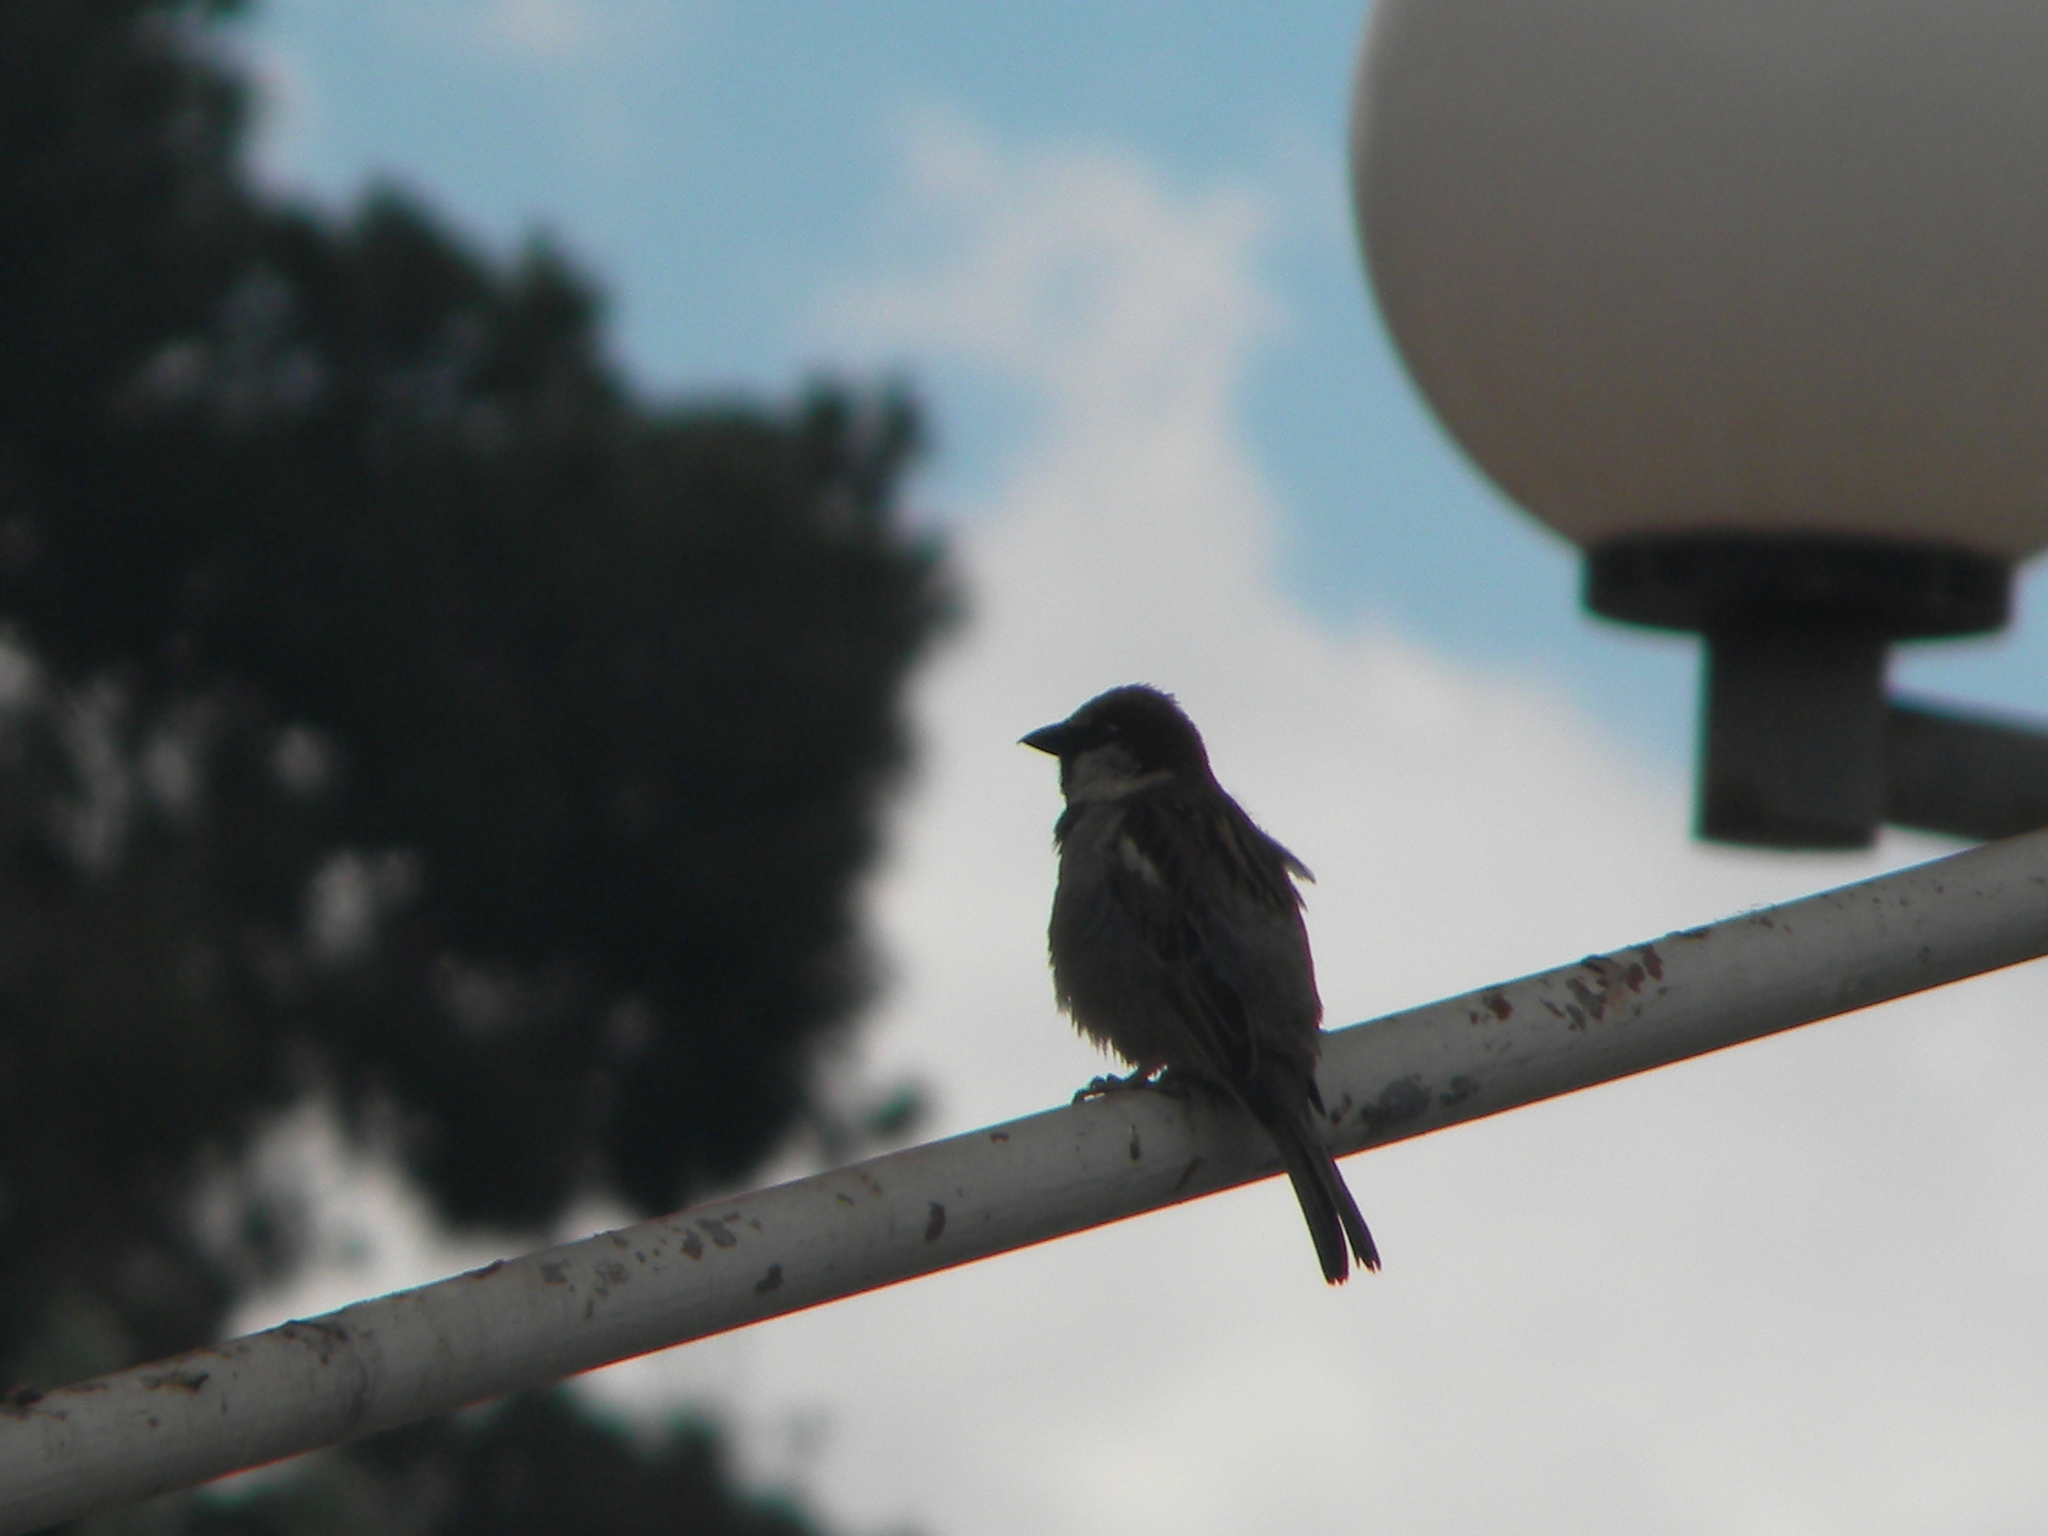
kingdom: Animalia
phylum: Chordata
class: Aves
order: Passeriformes
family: Passeridae
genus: Passer
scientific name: Passer domesticus
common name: House sparrow
